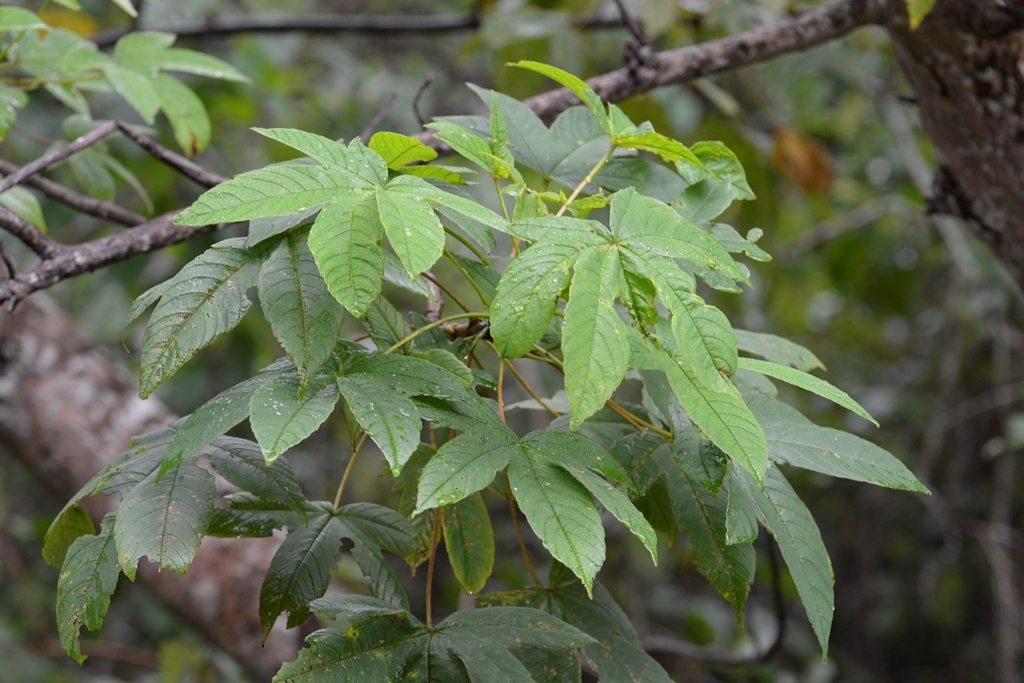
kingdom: Plantae
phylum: Tracheophyta
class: Magnoliopsida
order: Malvales
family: Cochlospermaceae
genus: Cochlospermum
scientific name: Cochlospermum vitifolium
